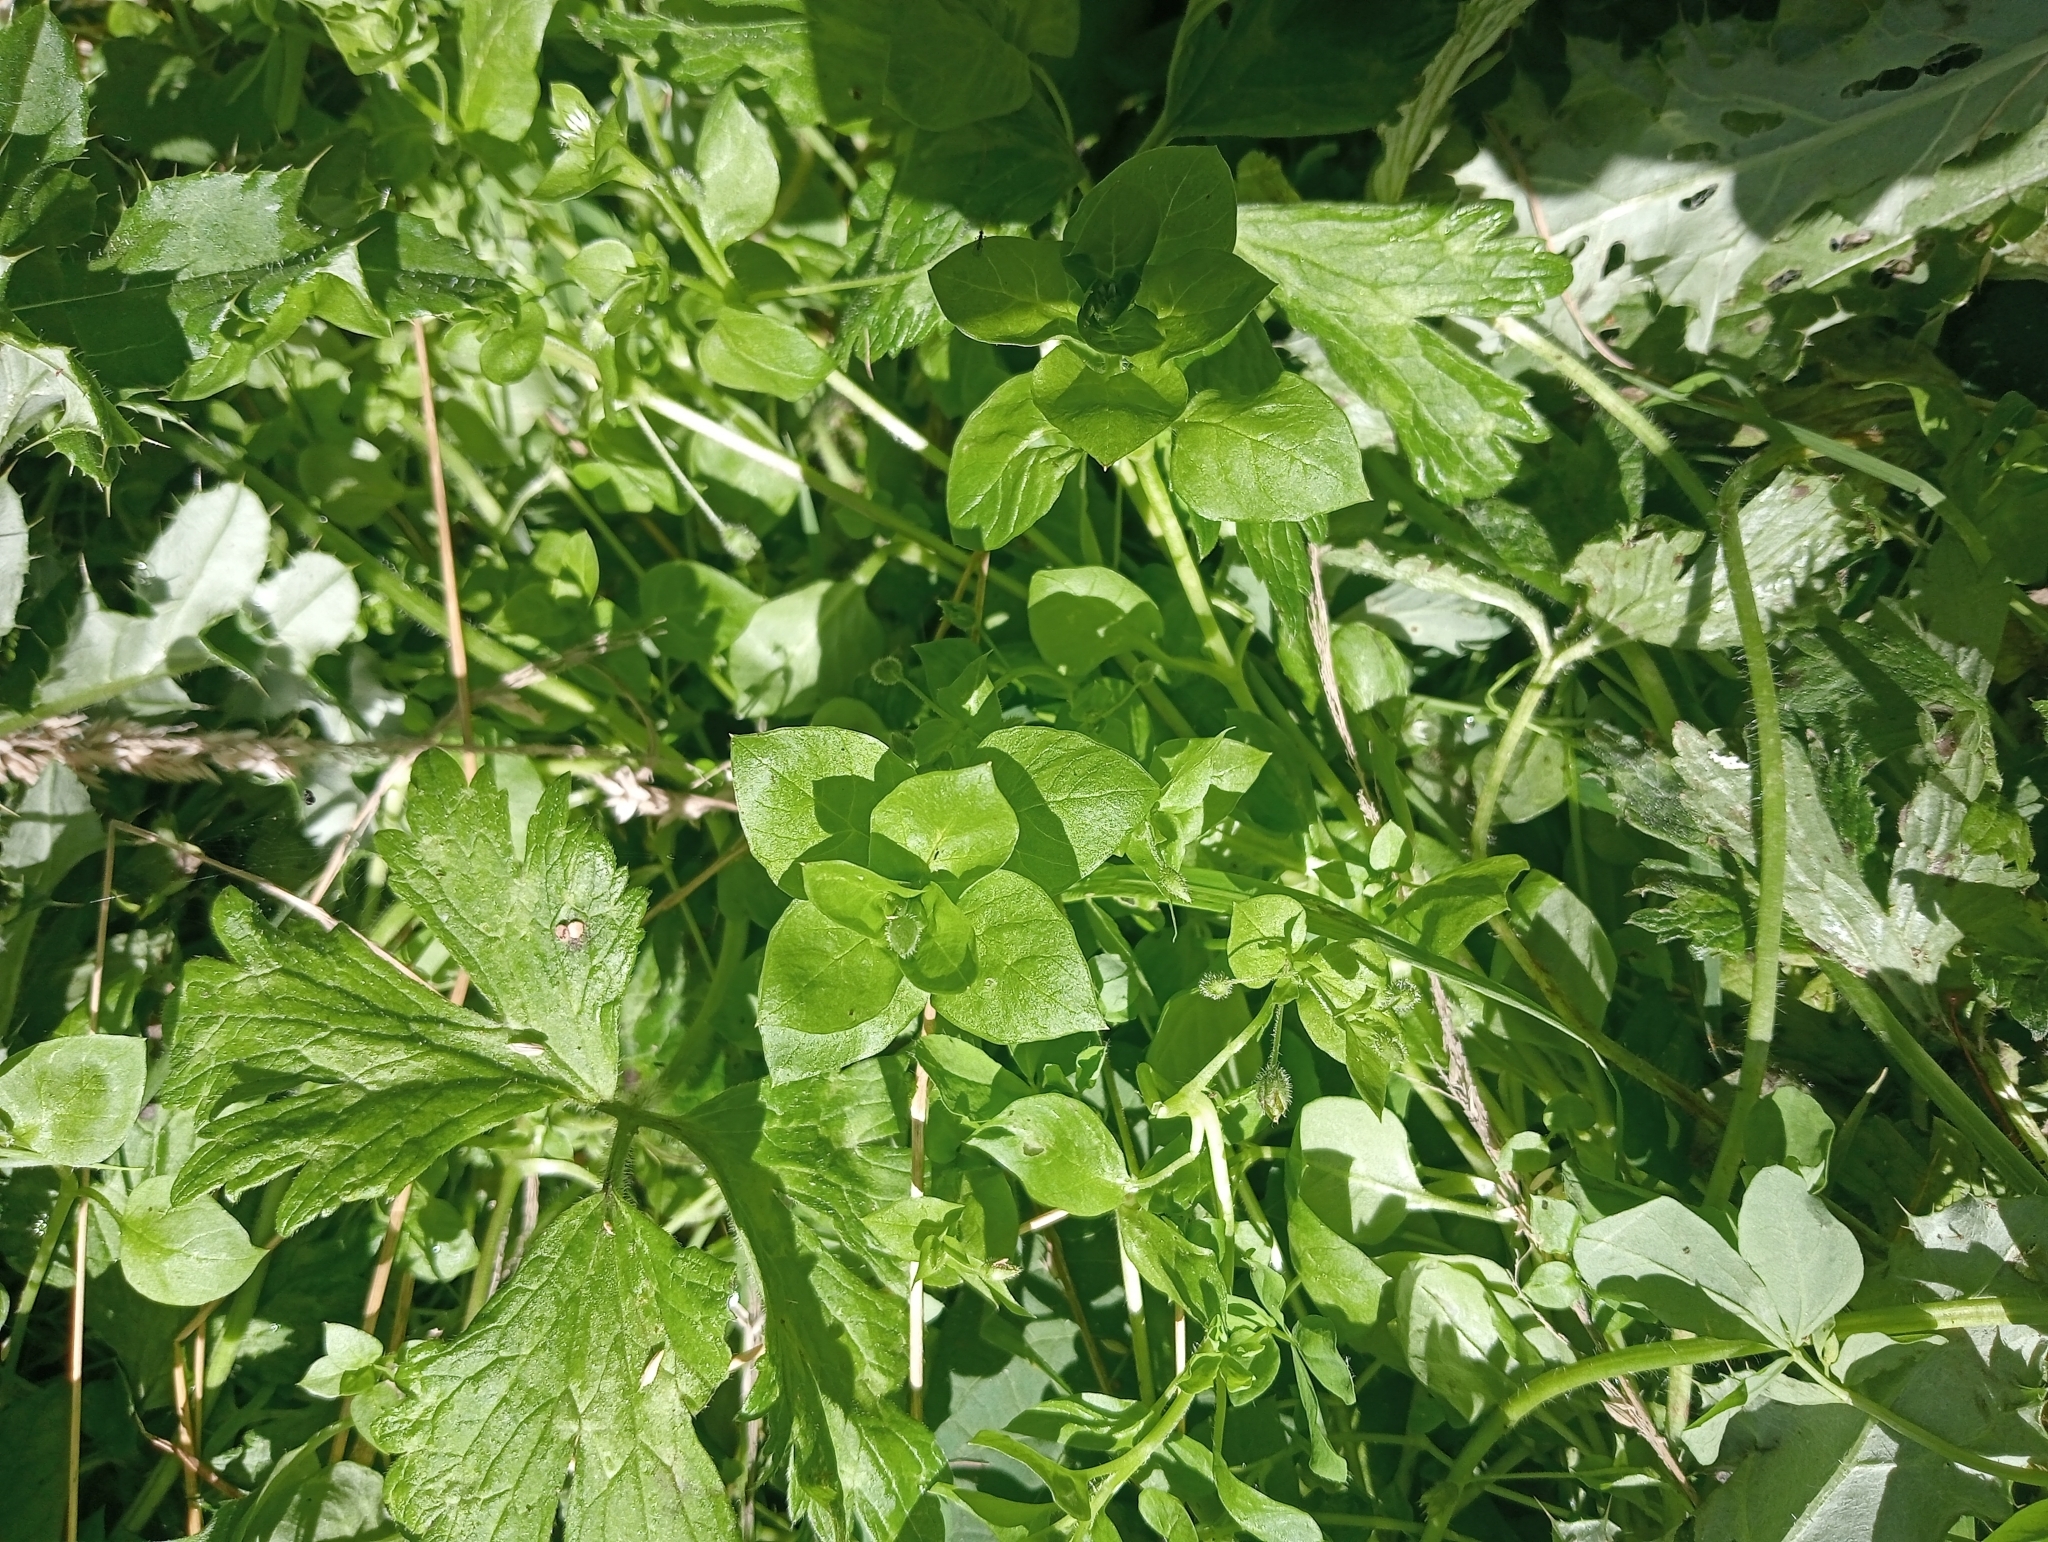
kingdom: Plantae
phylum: Tracheophyta
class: Magnoliopsida
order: Caryophyllales
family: Caryophyllaceae
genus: Stellaria
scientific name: Stellaria media
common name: Common chickweed
